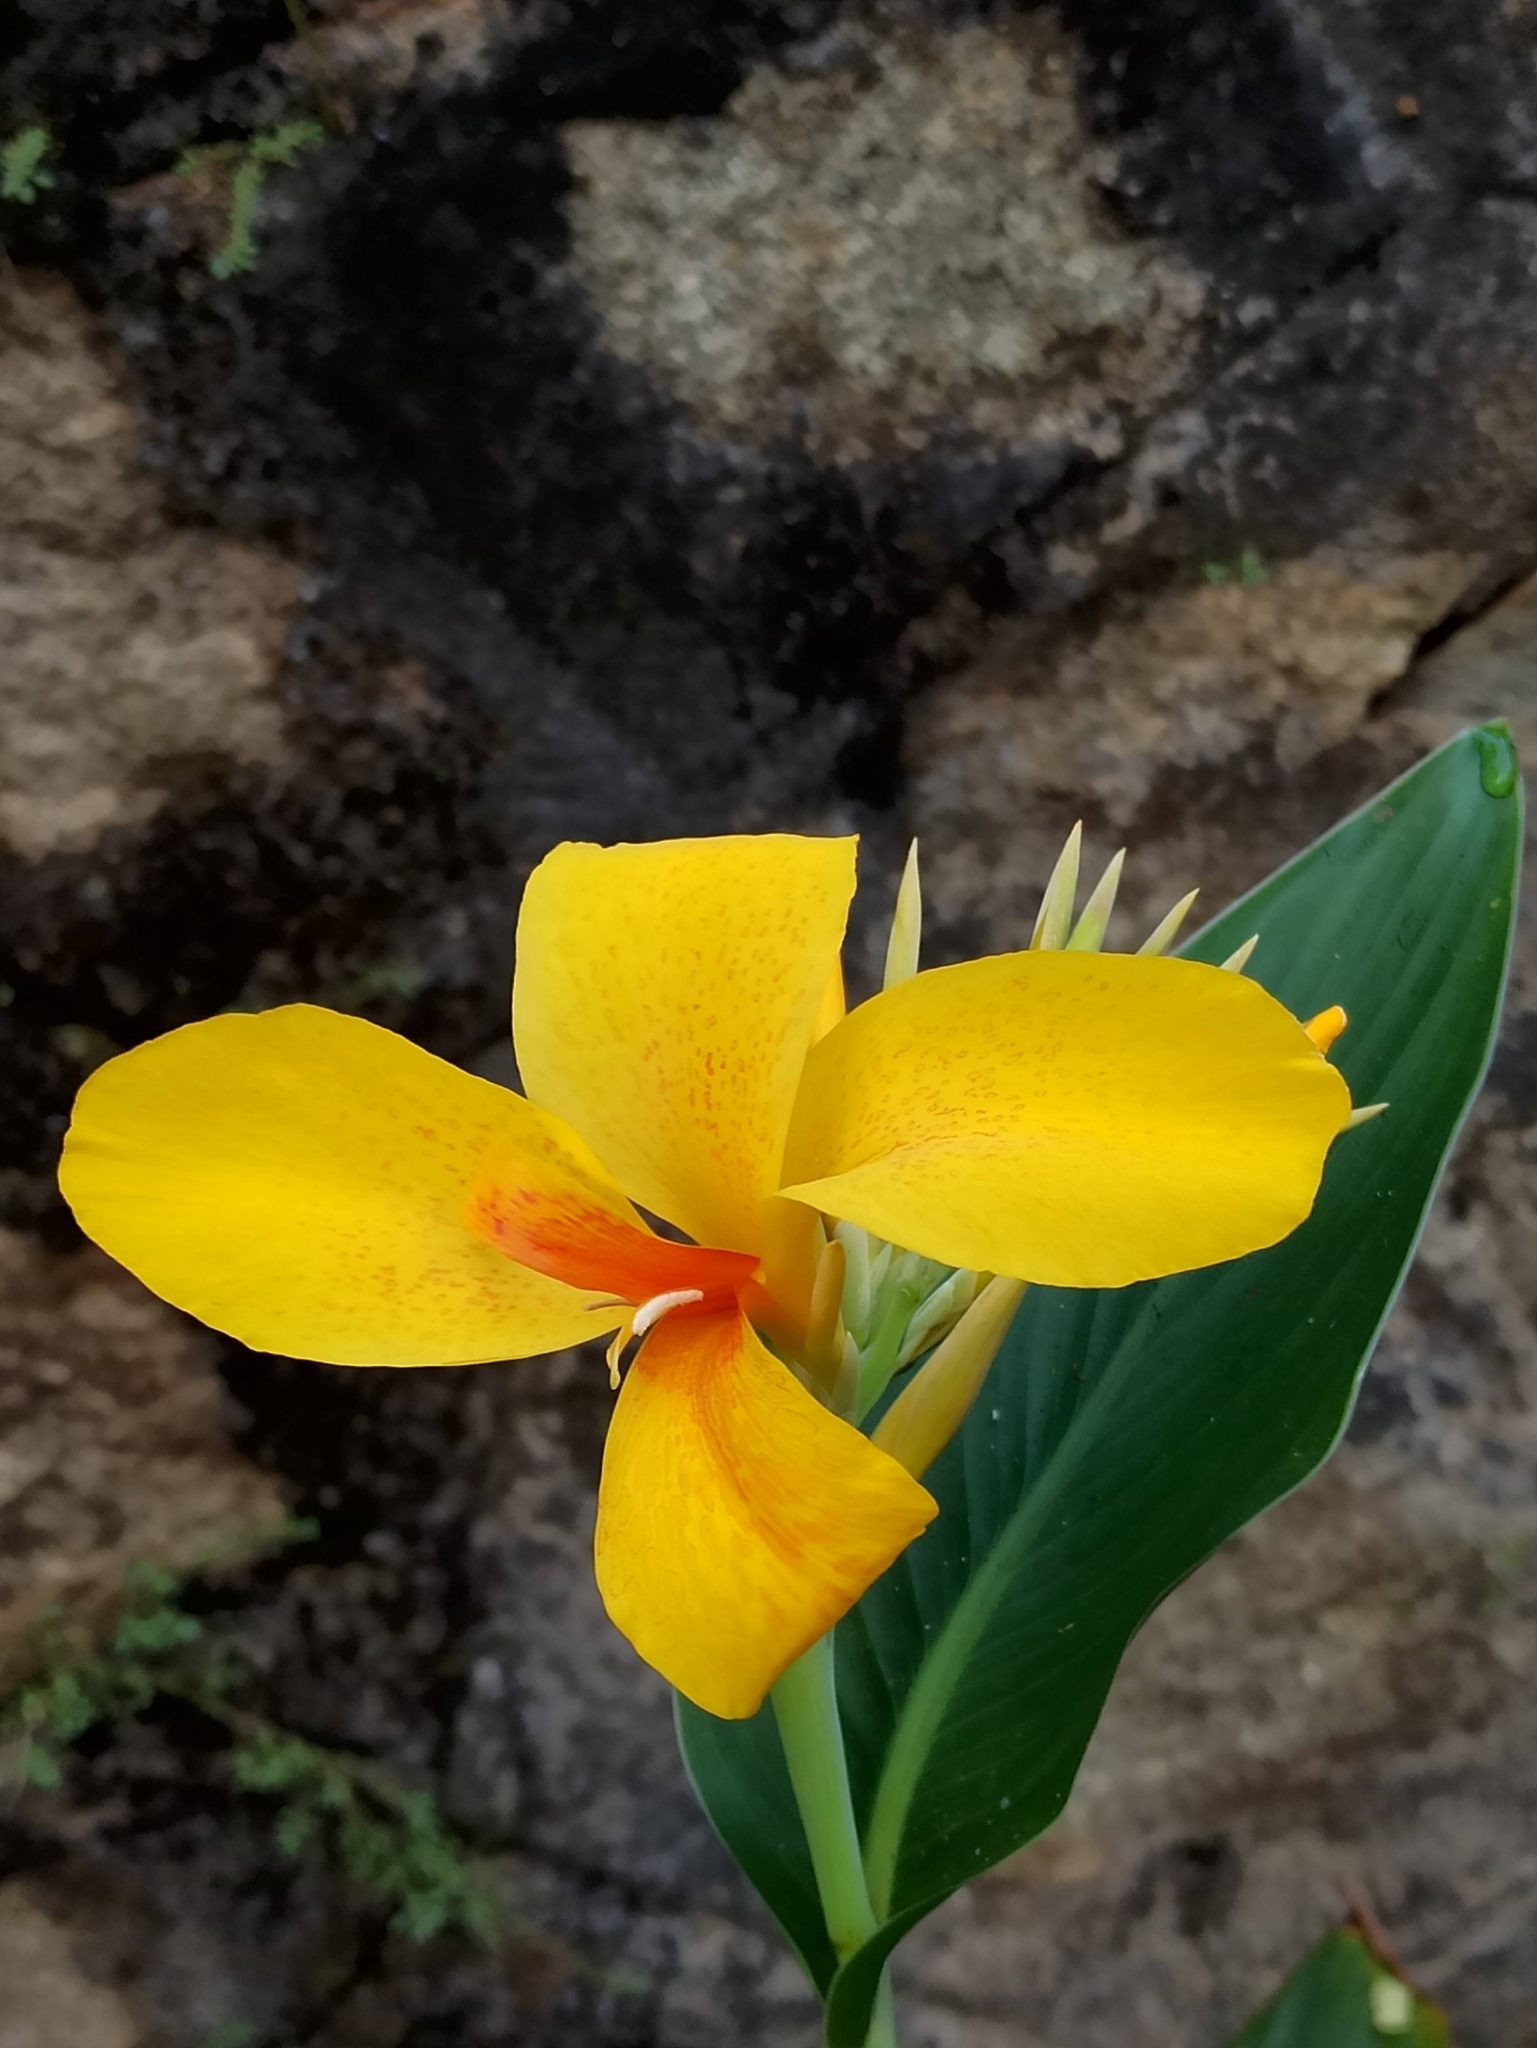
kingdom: Plantae
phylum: Tracheophyta
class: Liliopsida
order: Zingiberales
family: Cannaceae
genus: Canna
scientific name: Canna hybrida
